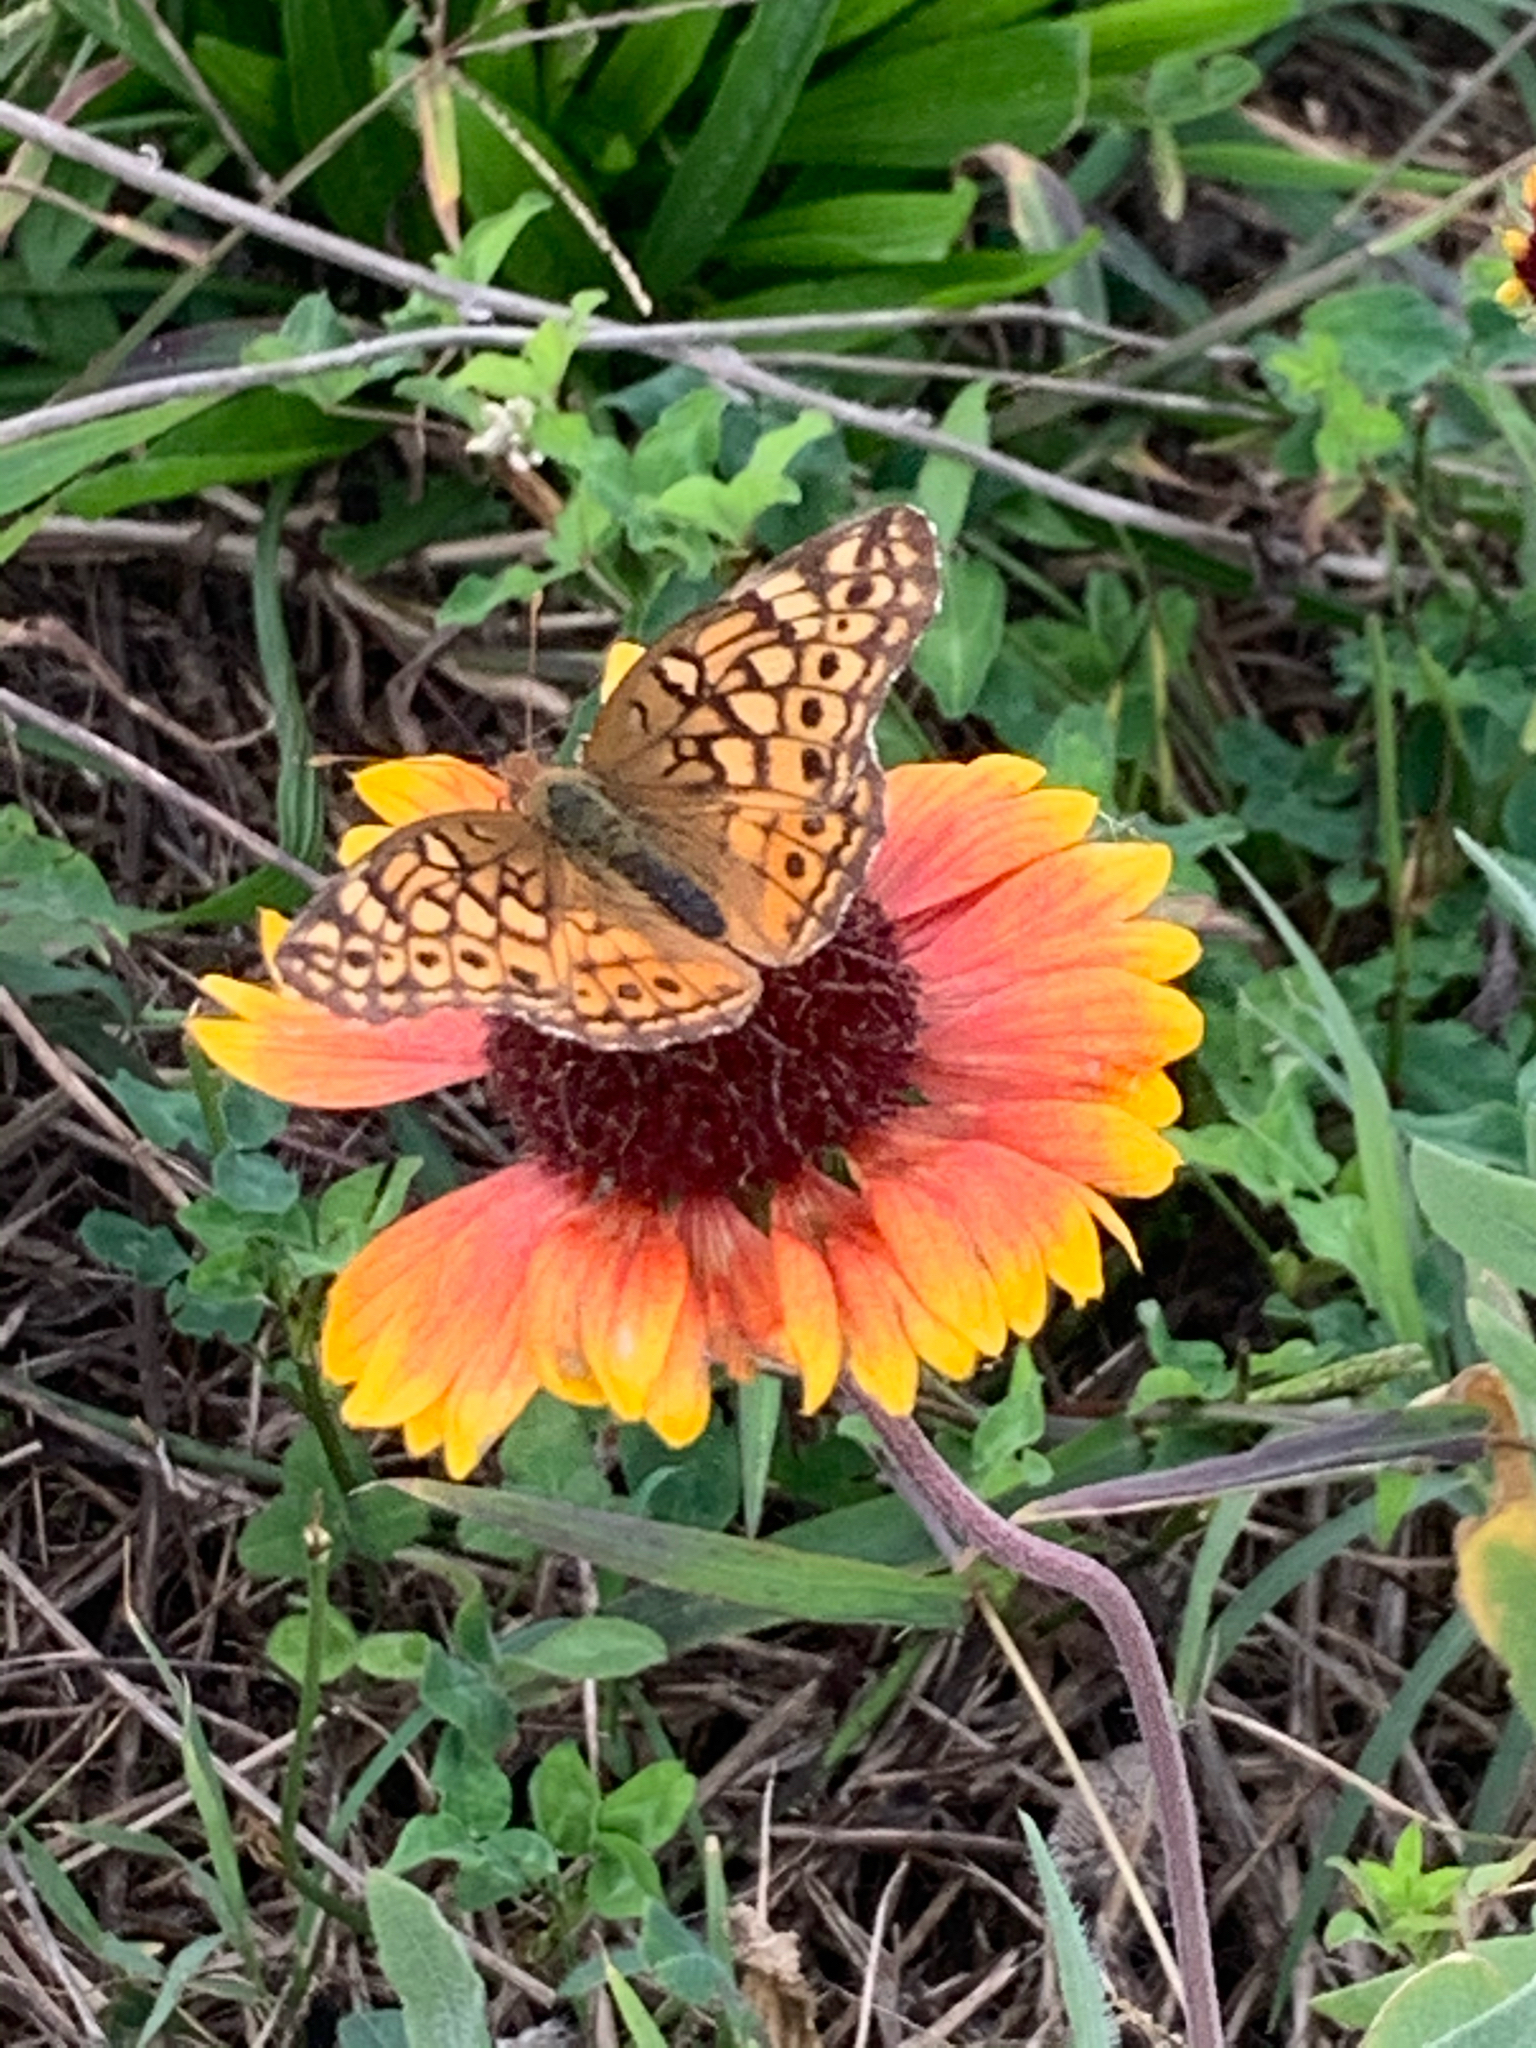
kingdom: Animalia
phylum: Arthropoda
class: Insecta
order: Lepidoptera
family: Nymphalidae
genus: Euptoieta
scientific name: Euptoieta claudia
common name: Variegated fritillary
